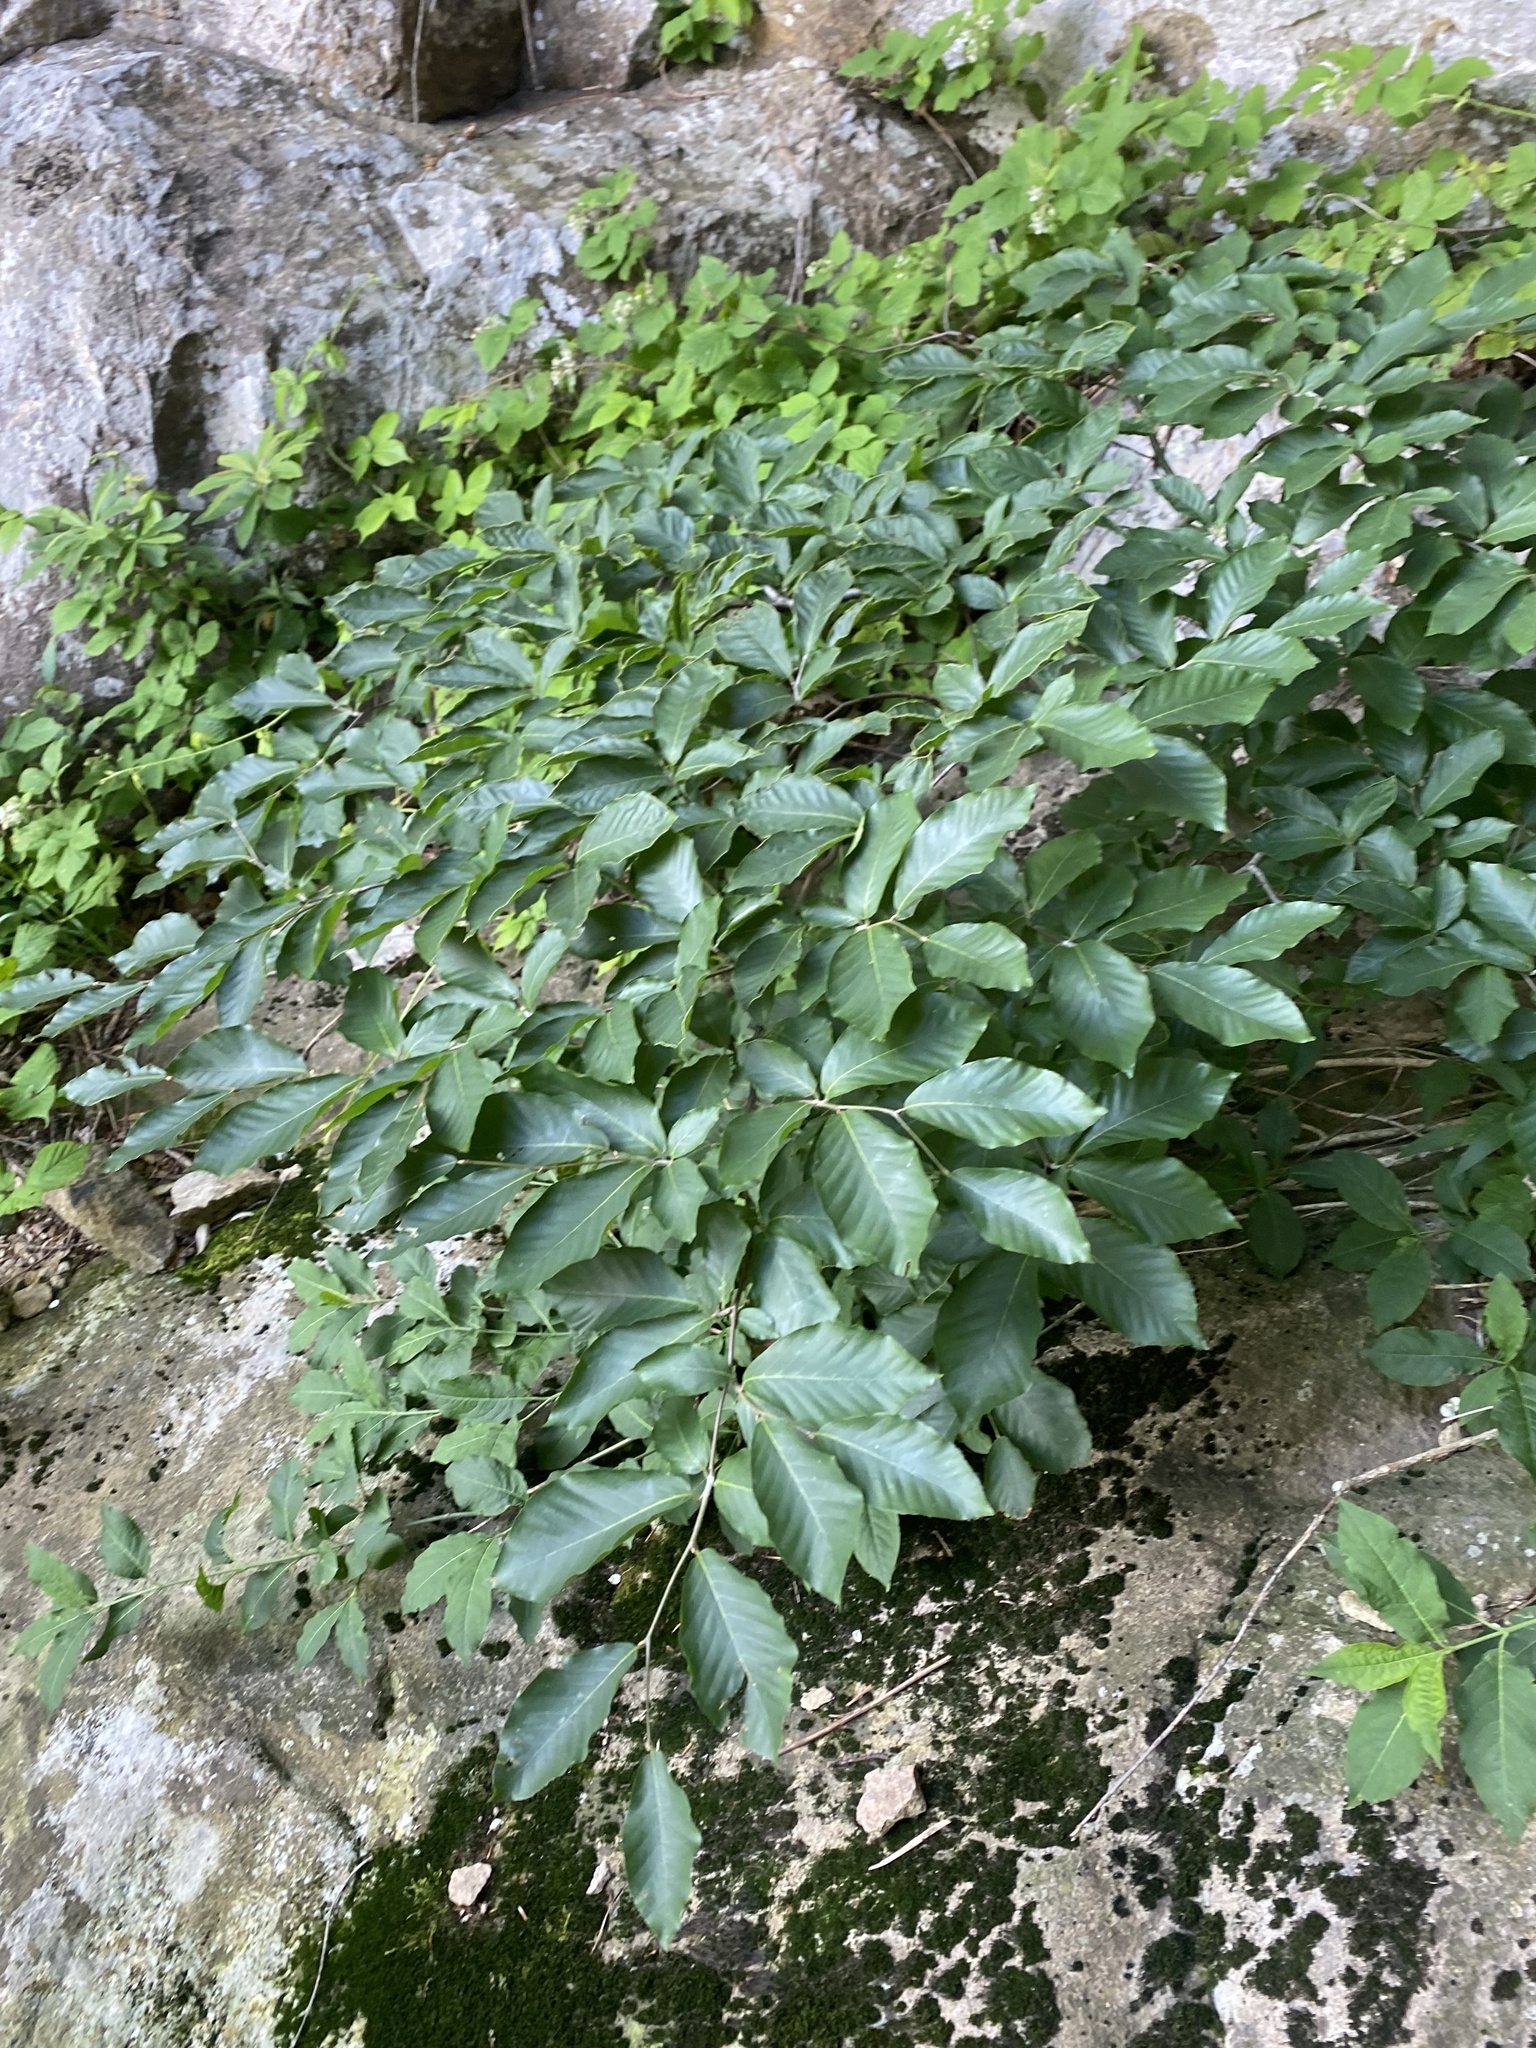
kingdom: Plantae
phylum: Tracheophyta
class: Magnoliopsida
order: Fagales
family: Fagaceae
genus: Fagus
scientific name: Fagus orientalis
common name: Oriental beech
